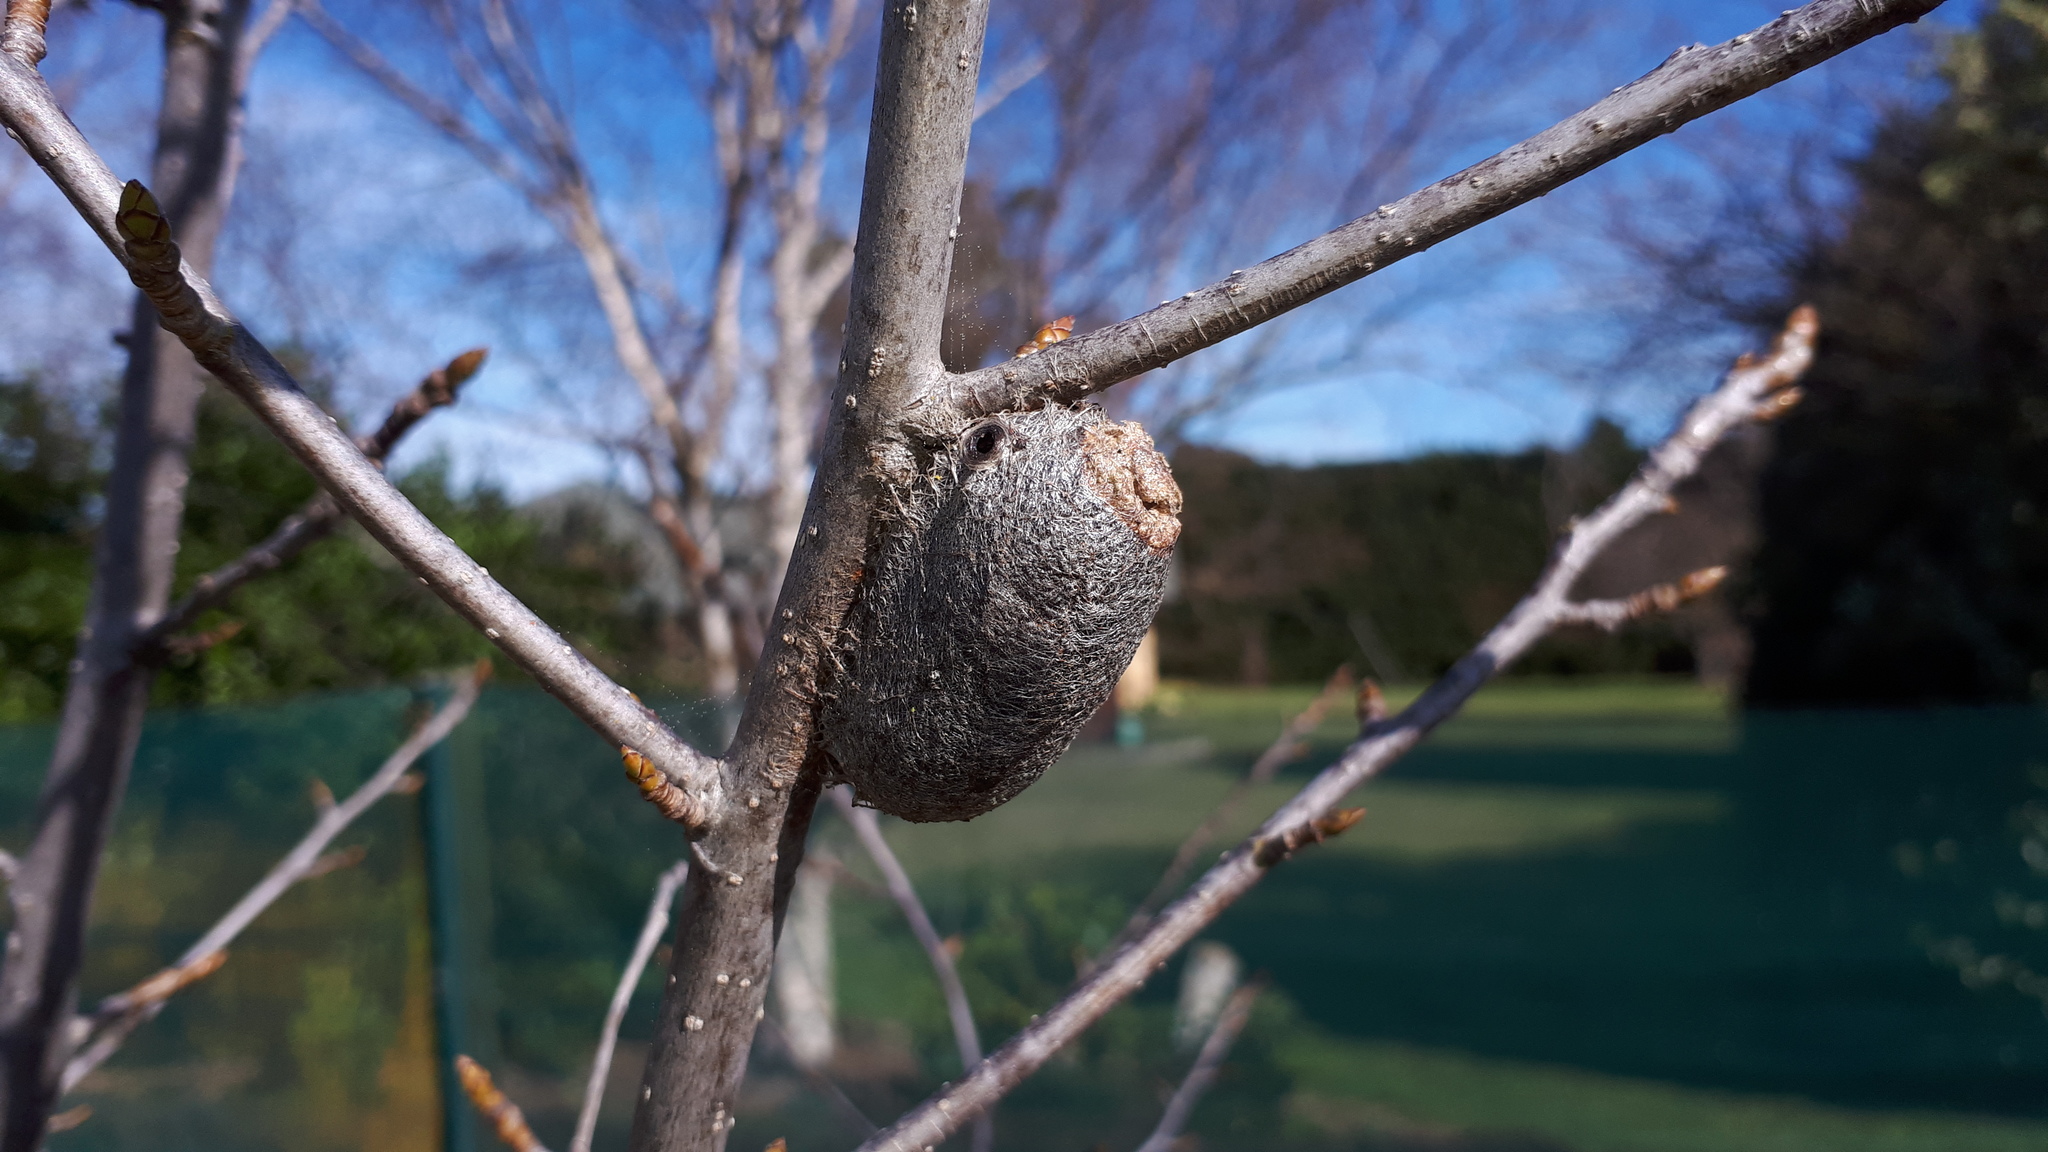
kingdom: Animalia
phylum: Arthropoda
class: Insecta
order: Lepidoptera
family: Saturniidae
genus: Opodiphthera
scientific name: Opodiphthera
